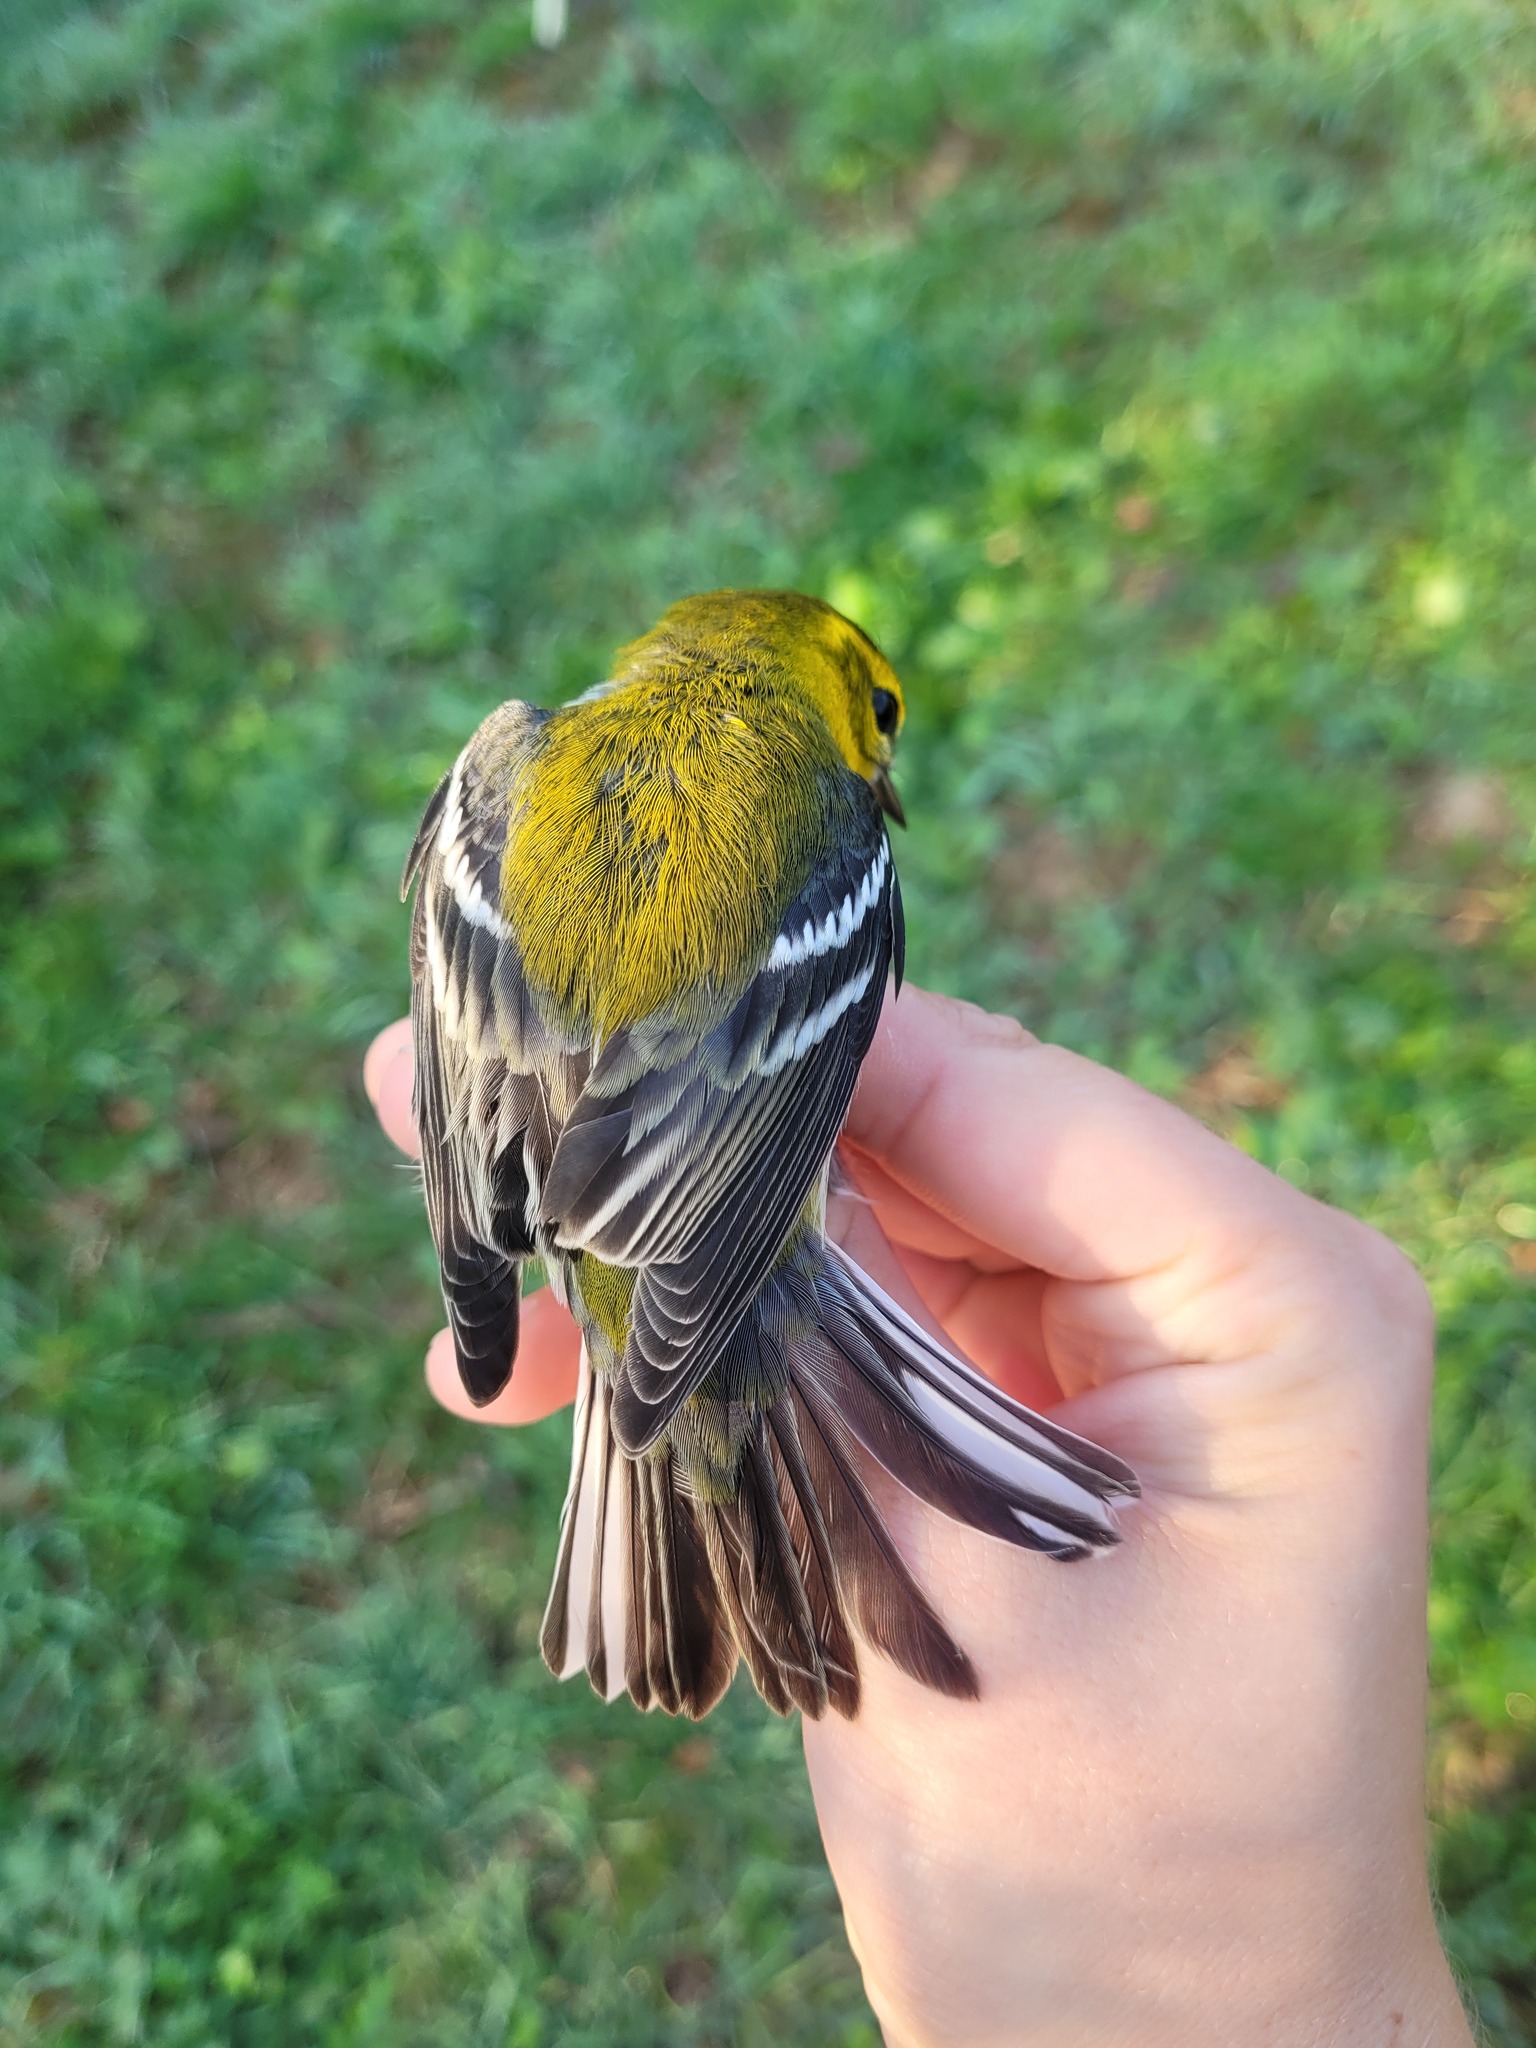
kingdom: Animalia
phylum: Chordata
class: Aves
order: Passeriformes
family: Parulidae
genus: Setophaga
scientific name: Setophaga virens
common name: Black-throated green warbler
